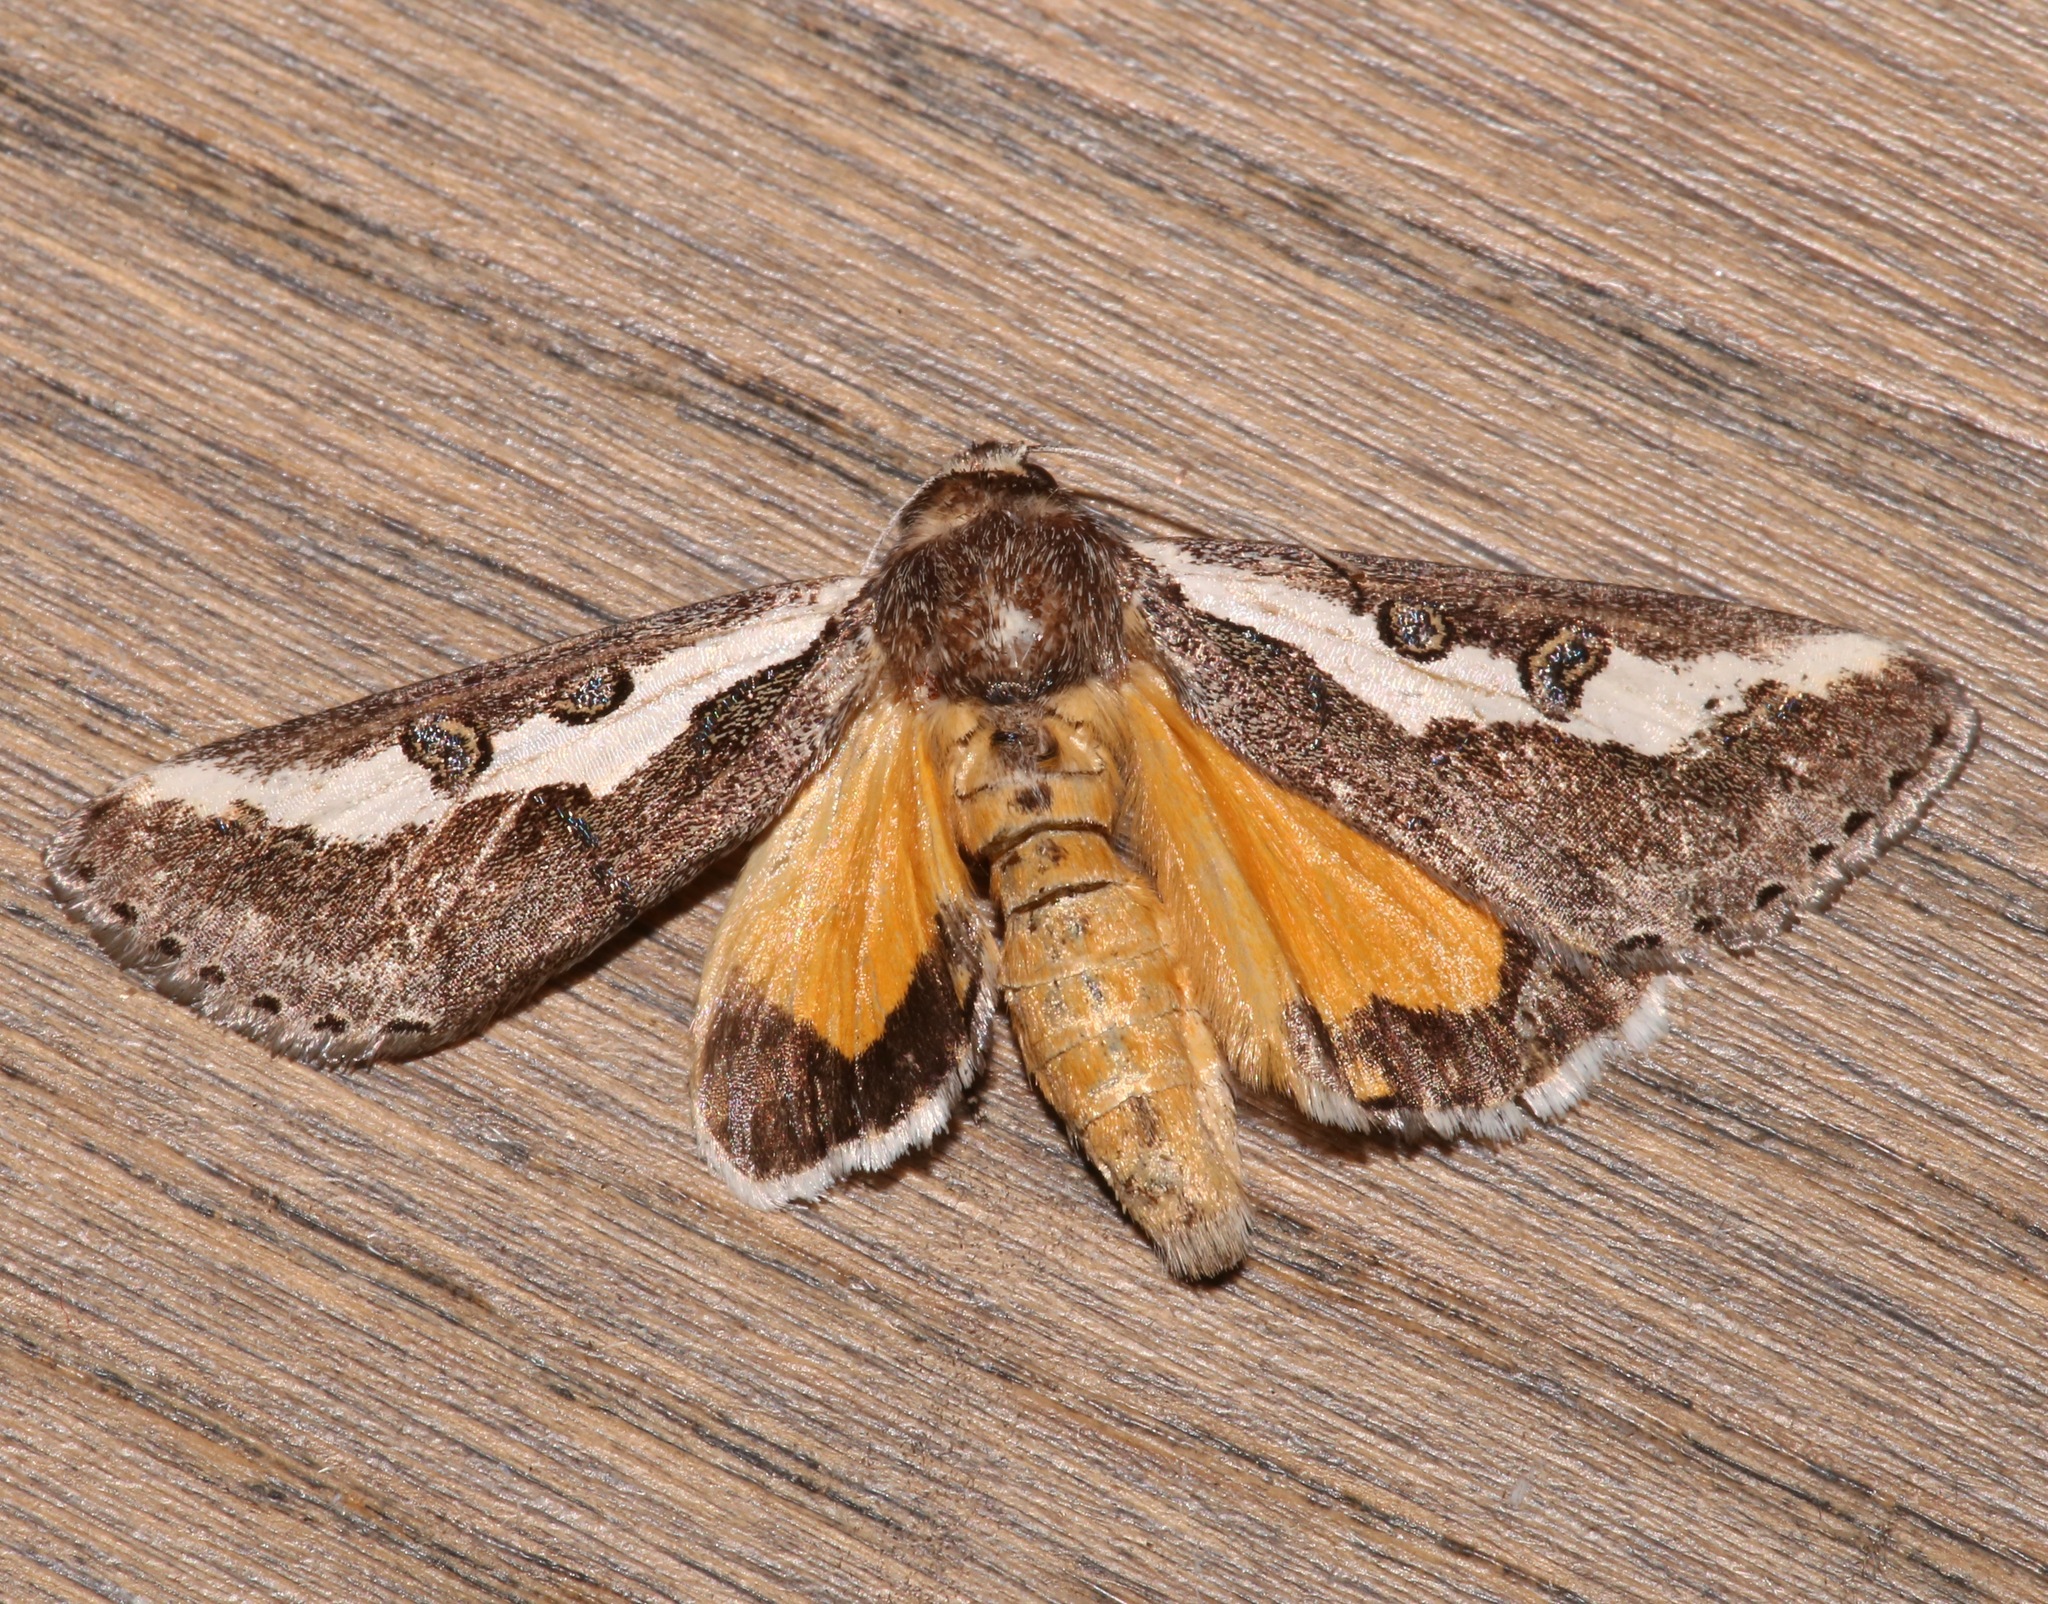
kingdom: Animalia
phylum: Arthropoda
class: Insecta
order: Lepidoptera
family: Noctuidae
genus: Euscirrhopterus
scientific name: Euscirrhopterus gloveri
